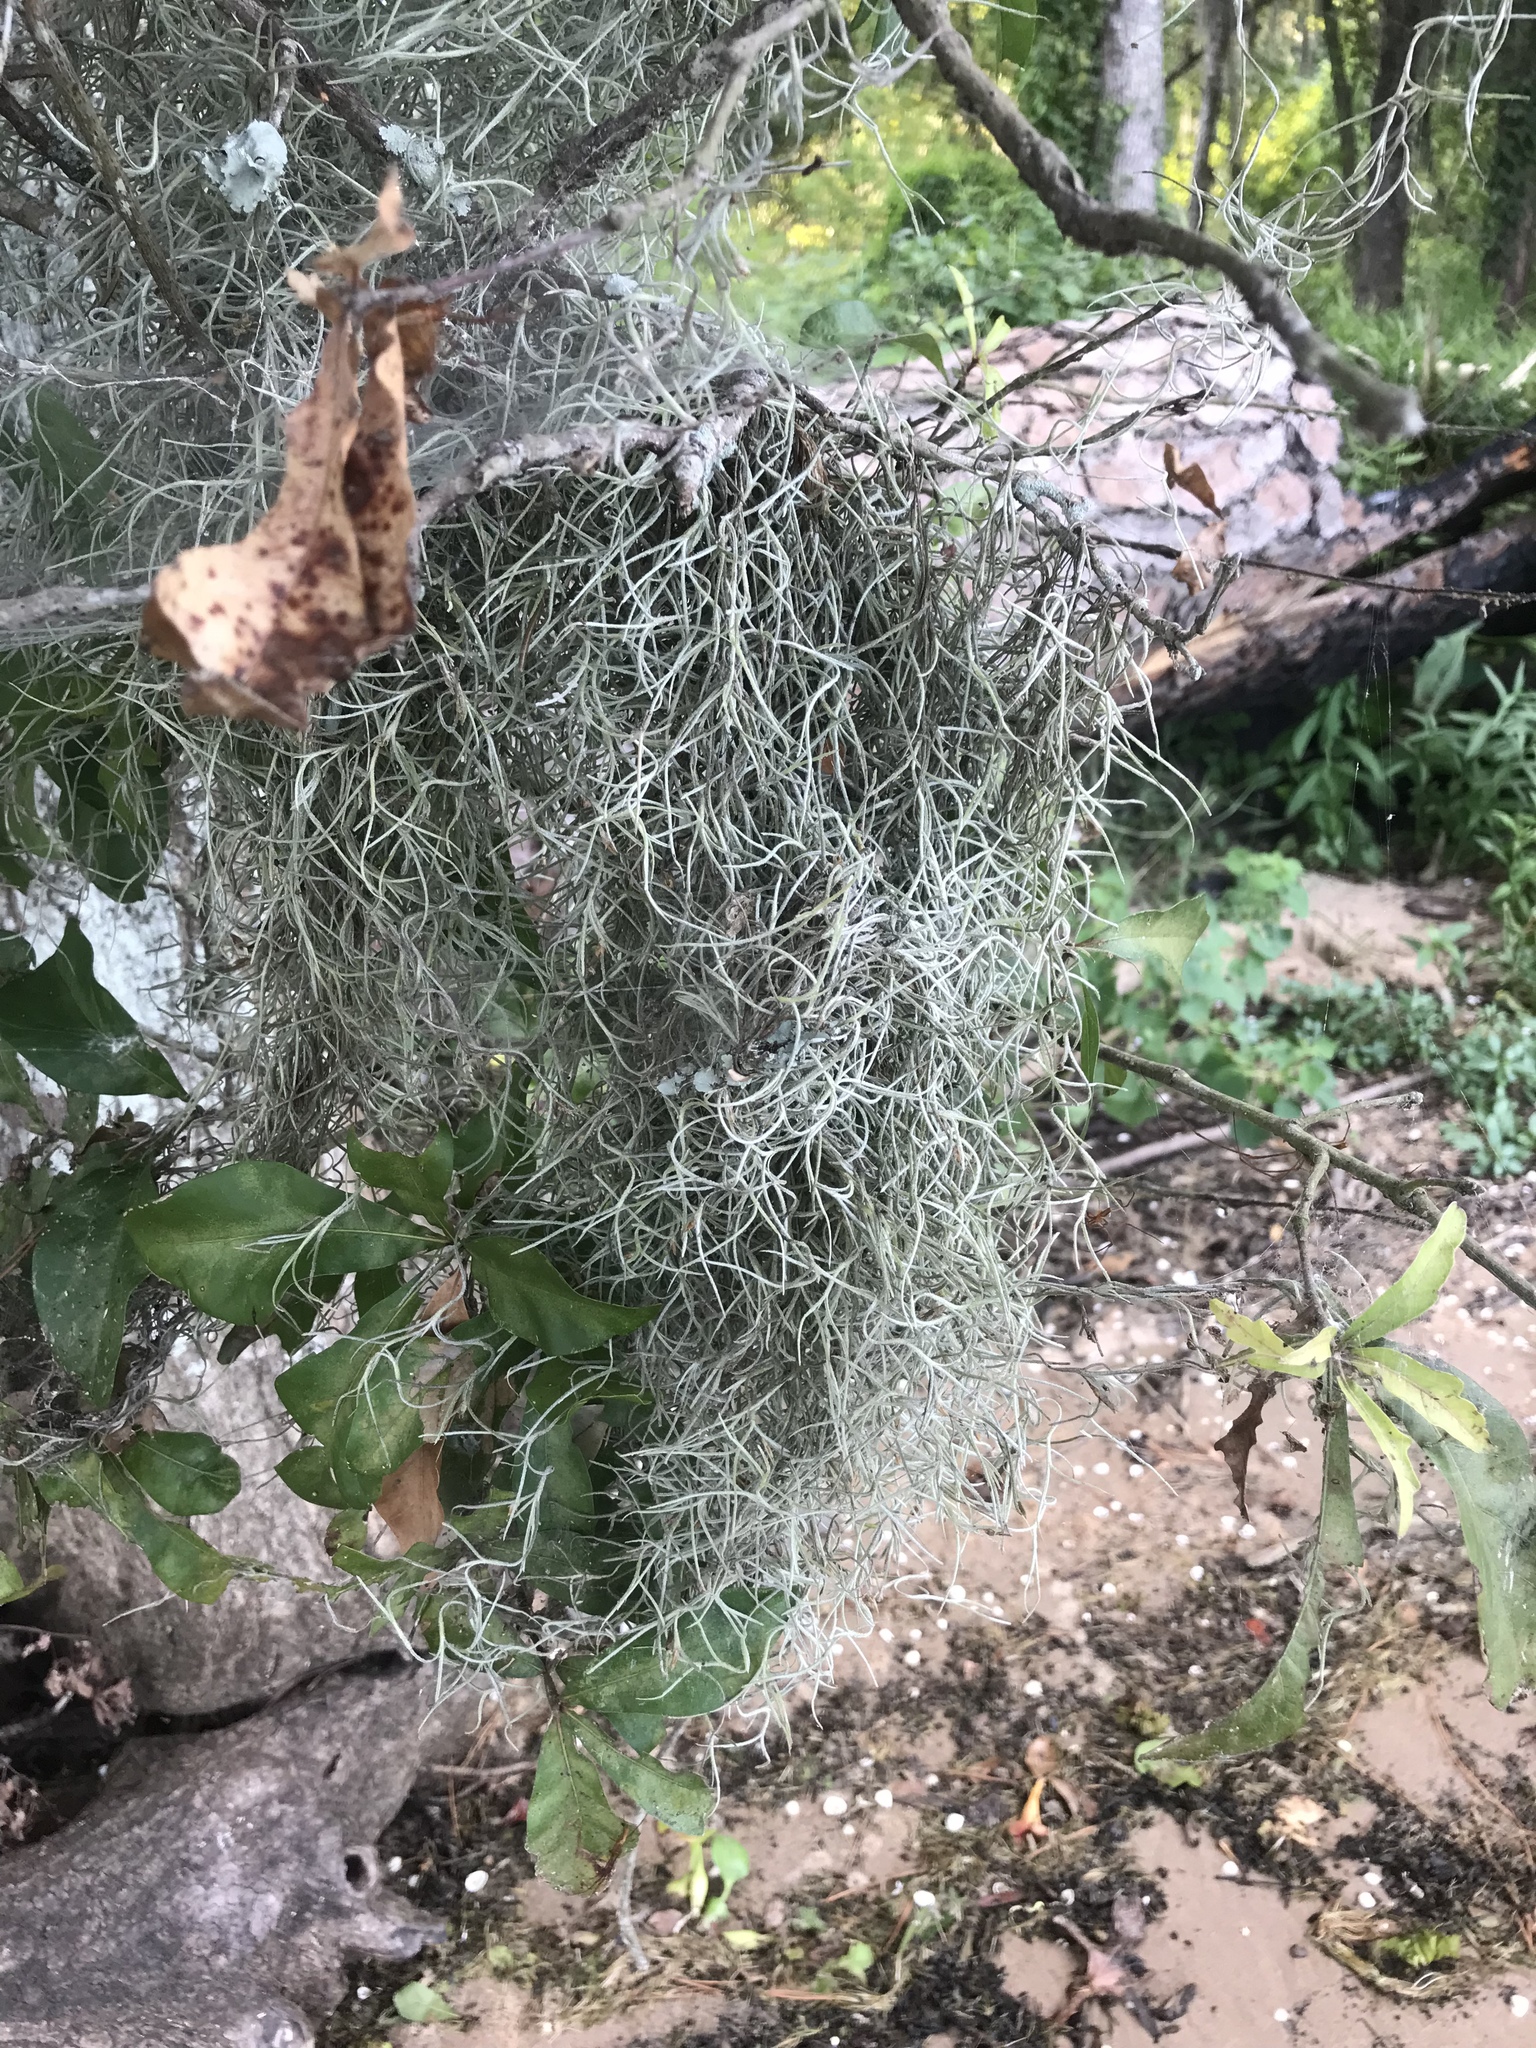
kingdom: Plantae
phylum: Tracheophyta
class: Liliopsida
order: Poales
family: Bromeliaceae
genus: Tillandsia
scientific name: Tillandsia usneoides
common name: Spanish moss
